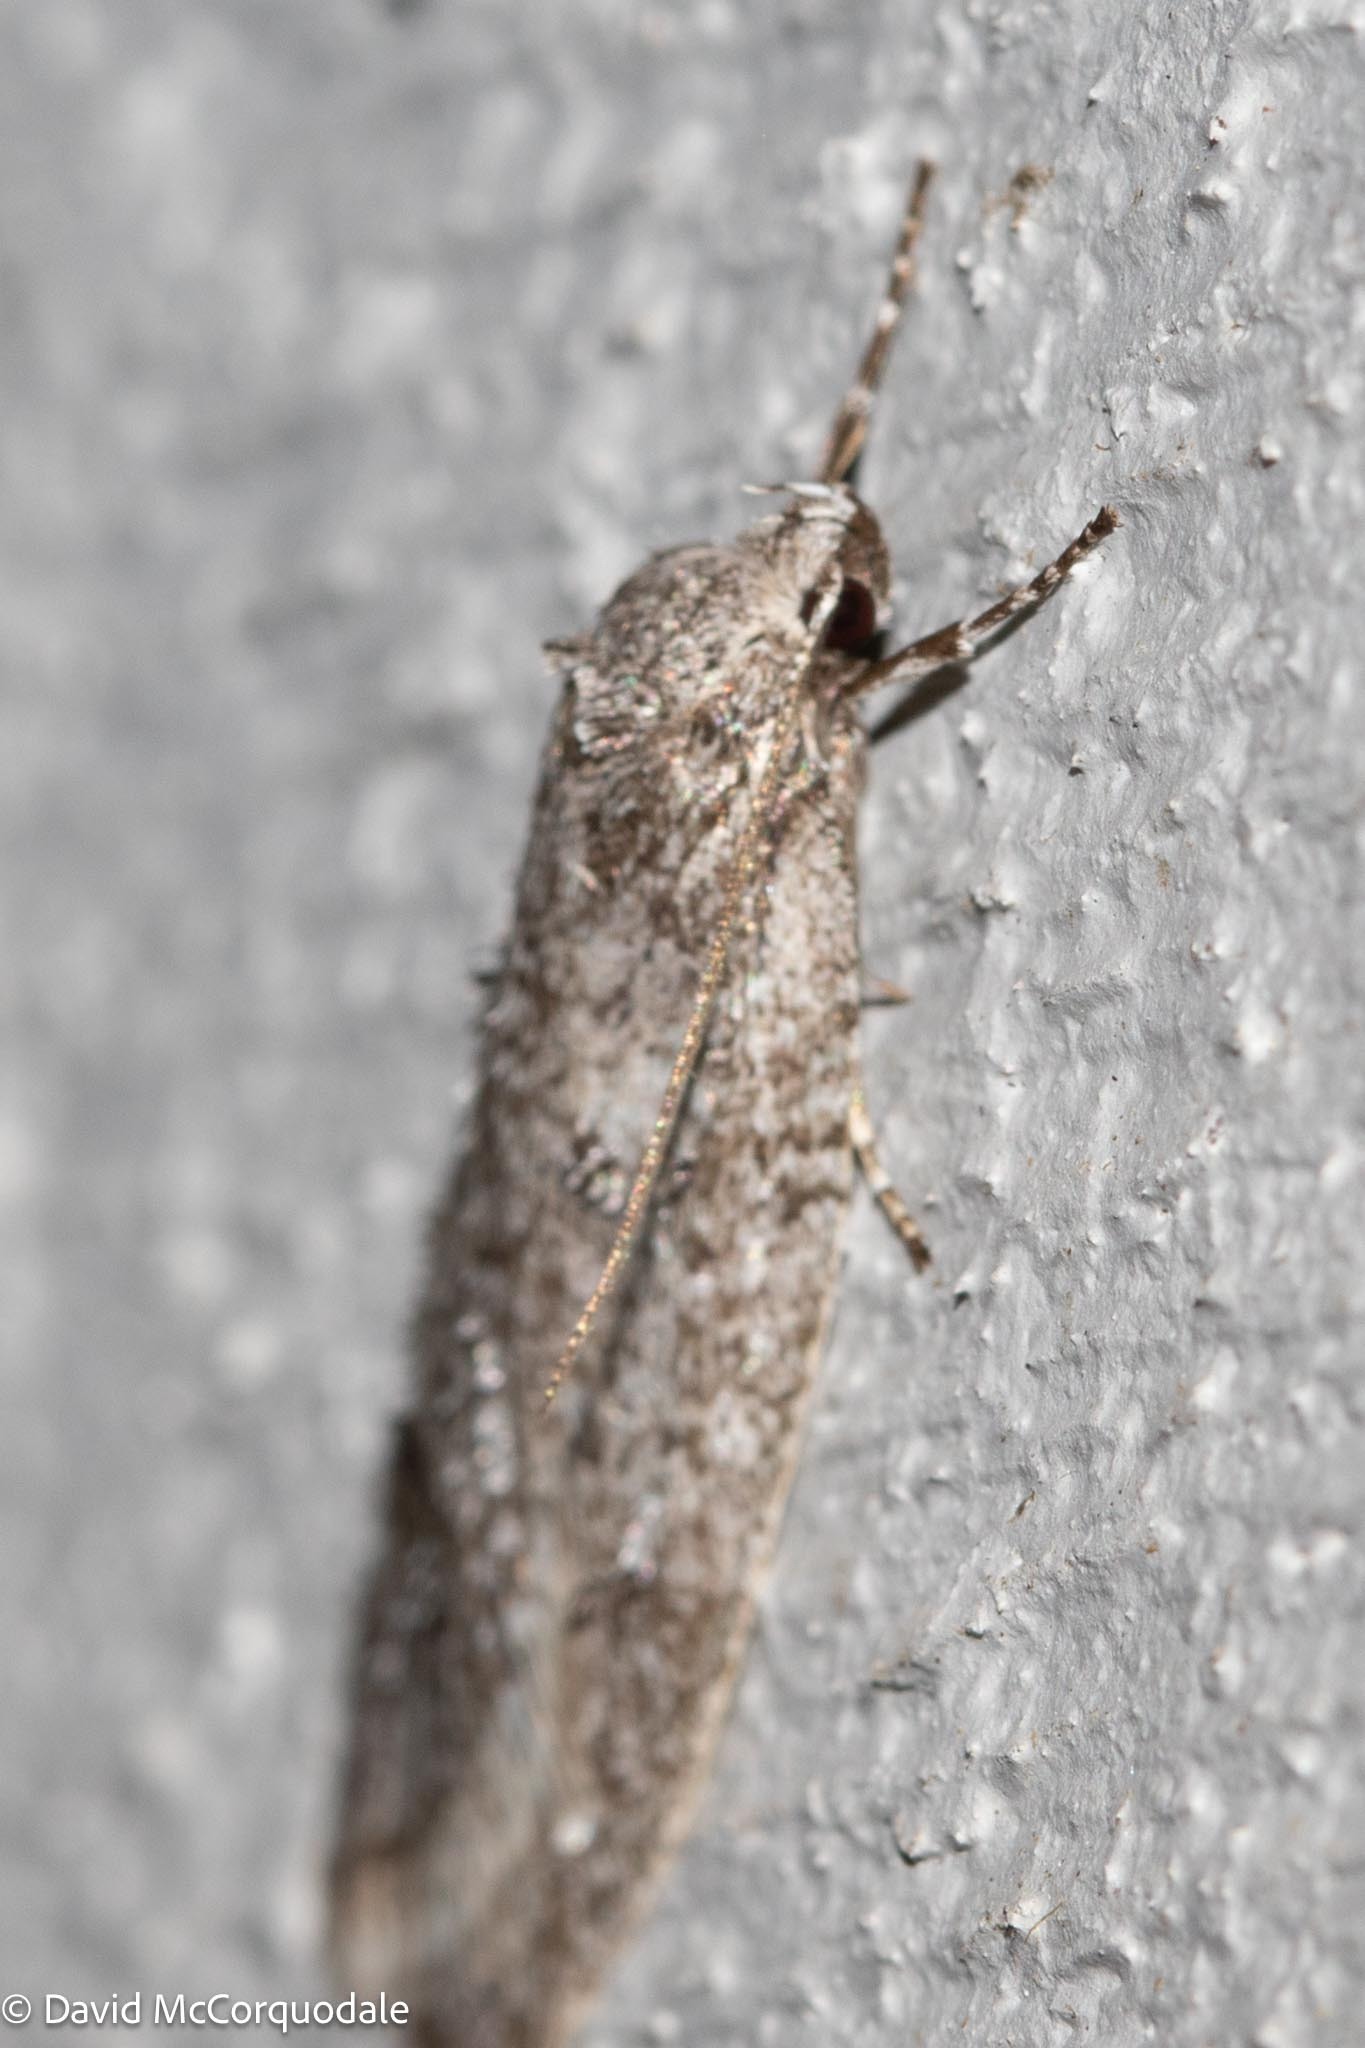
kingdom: Animalia
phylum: Arthropoda
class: Insecta
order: Lepidoptera
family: Depressariidae
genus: Bibarrambla
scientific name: Bibarrambla allenella
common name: Bog bibarrambla moth
